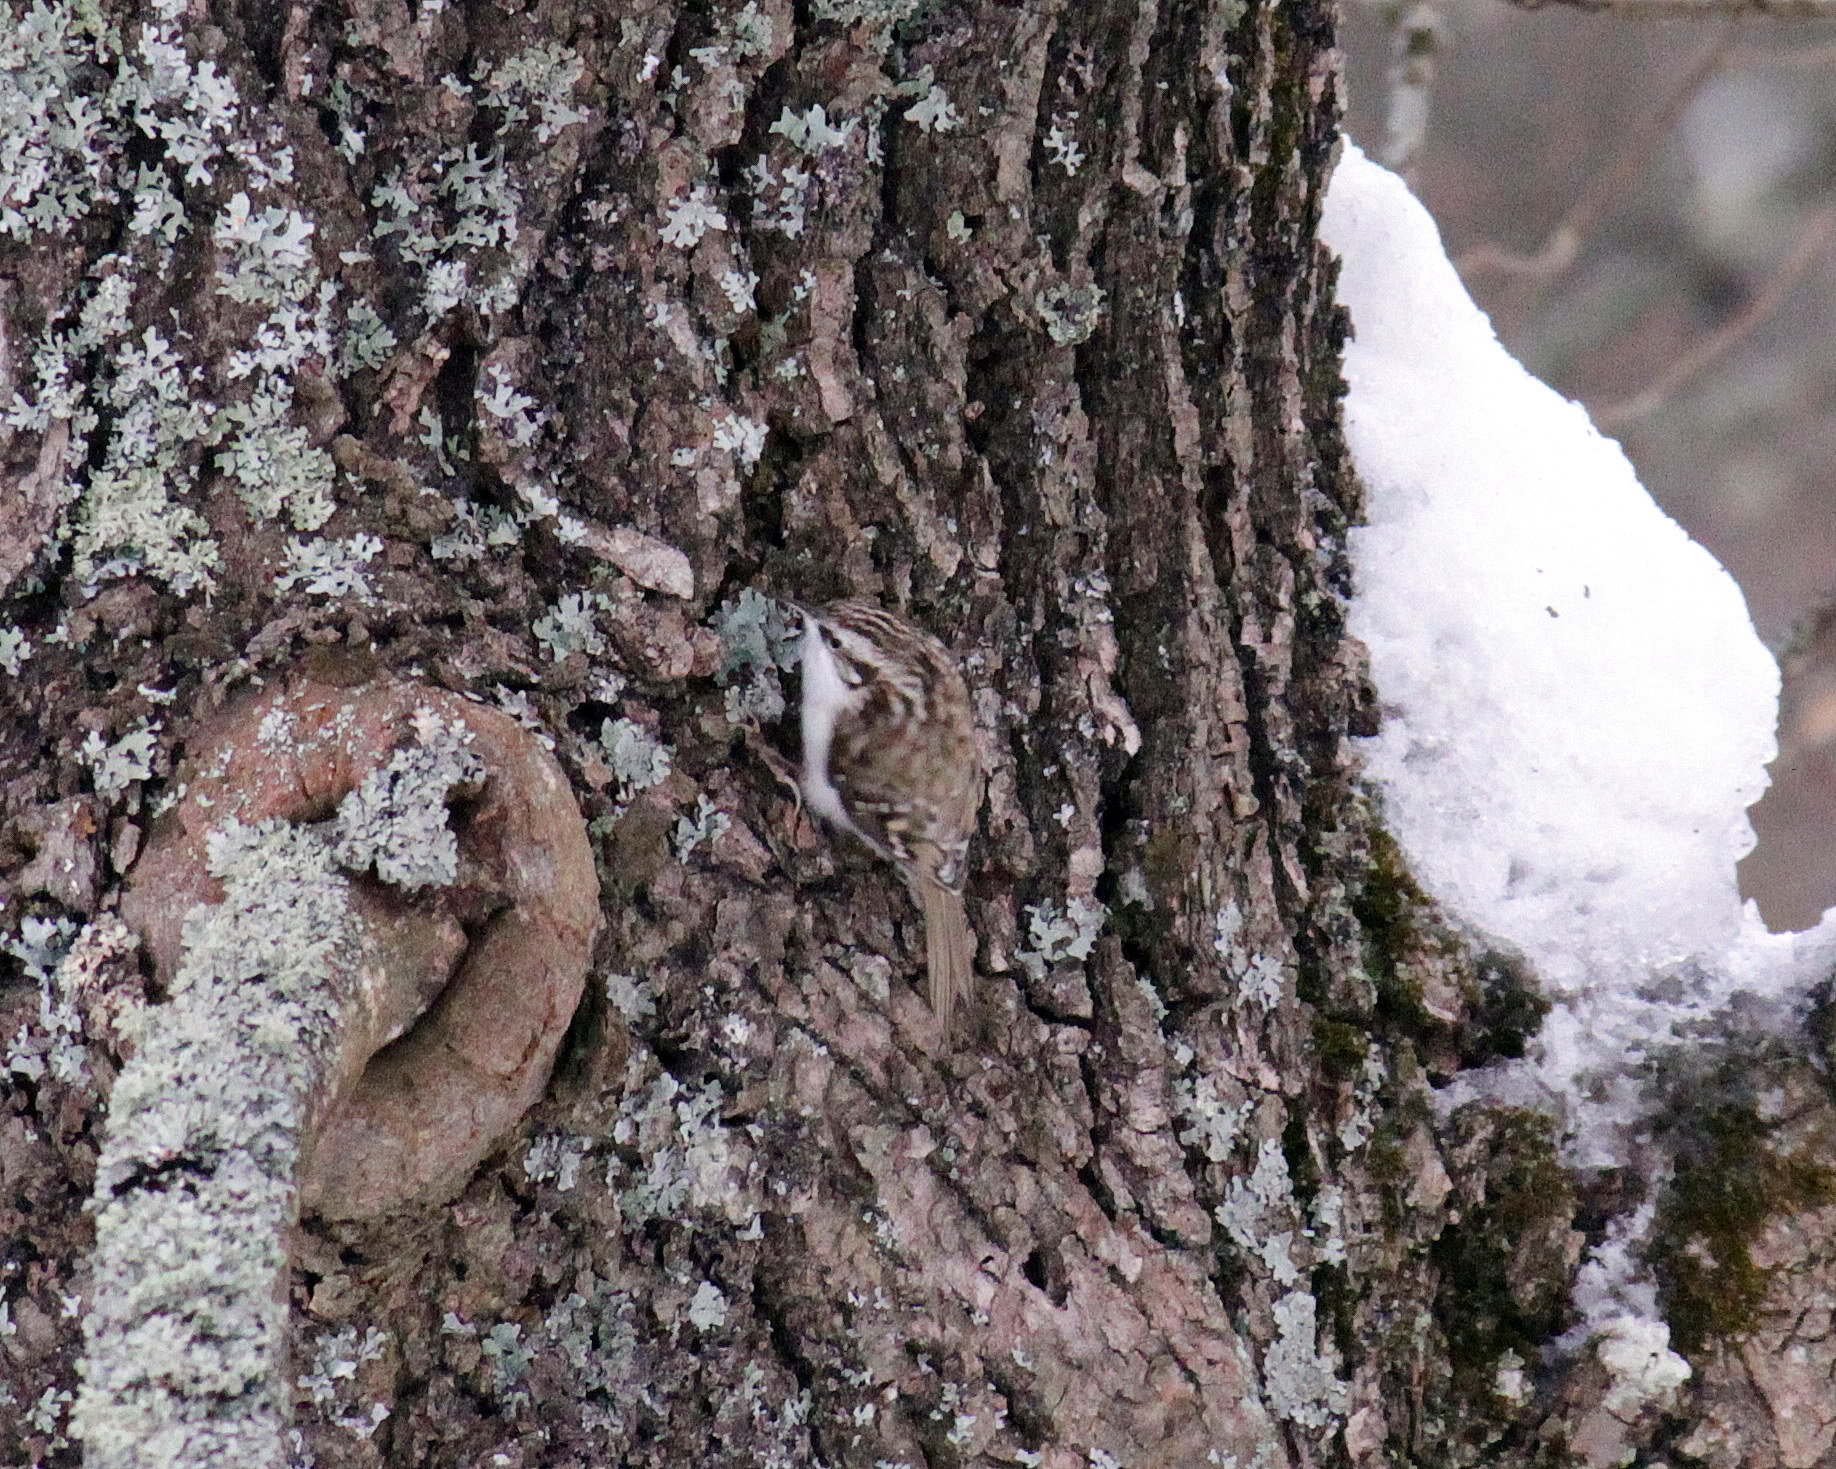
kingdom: Animalia
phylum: Chordata
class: Aves
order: Passeriformes
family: Certhiidae
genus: Certhia
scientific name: Certhia familiaris
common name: Eurasian treecreeper
